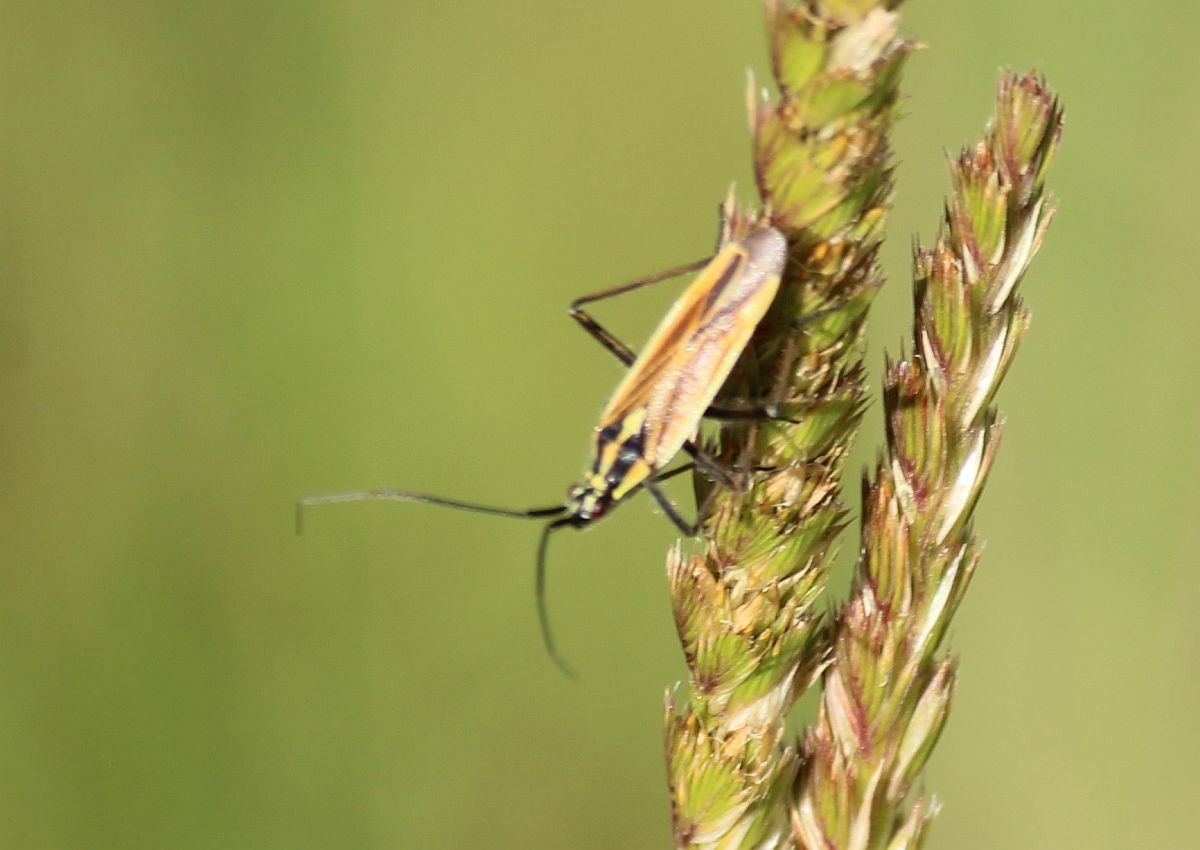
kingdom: Animalia
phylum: Arthropoda
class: Insecta
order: Hemiptera
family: Miridae
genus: Leptopterna
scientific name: Leptopterna dolabrata
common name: Meadow plant bug
